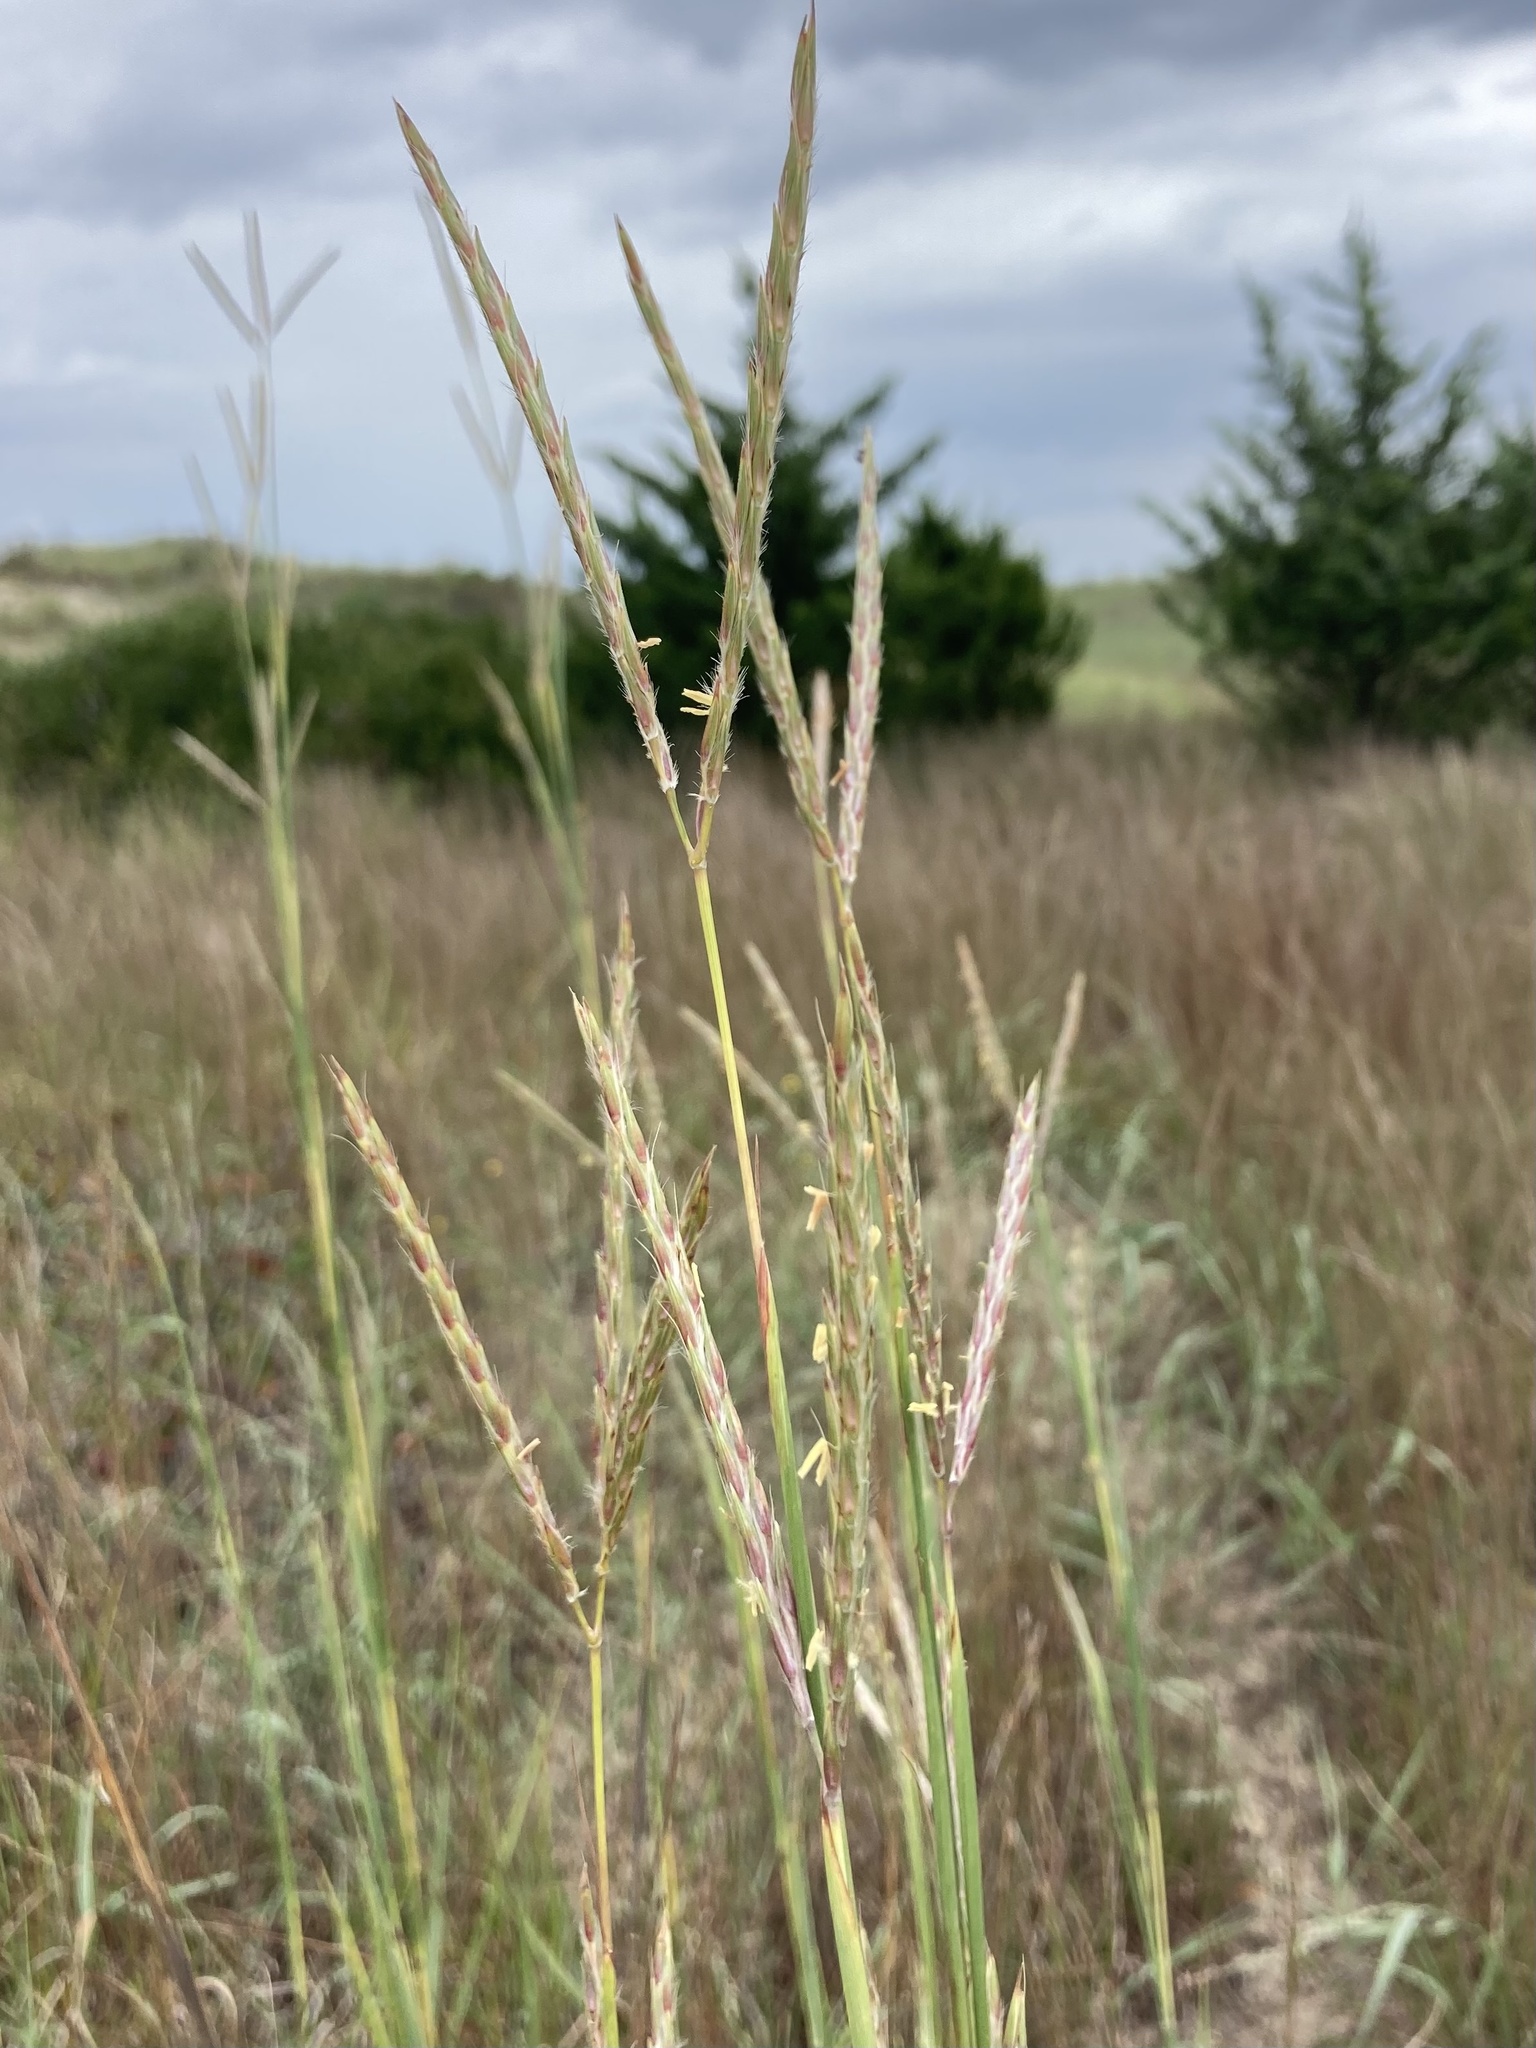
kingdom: Plantae
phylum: Tracheophyta
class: Liliopsida
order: Poales
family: Poaceae
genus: Andropogon
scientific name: Andropogon gerardi
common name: Big bluestem
